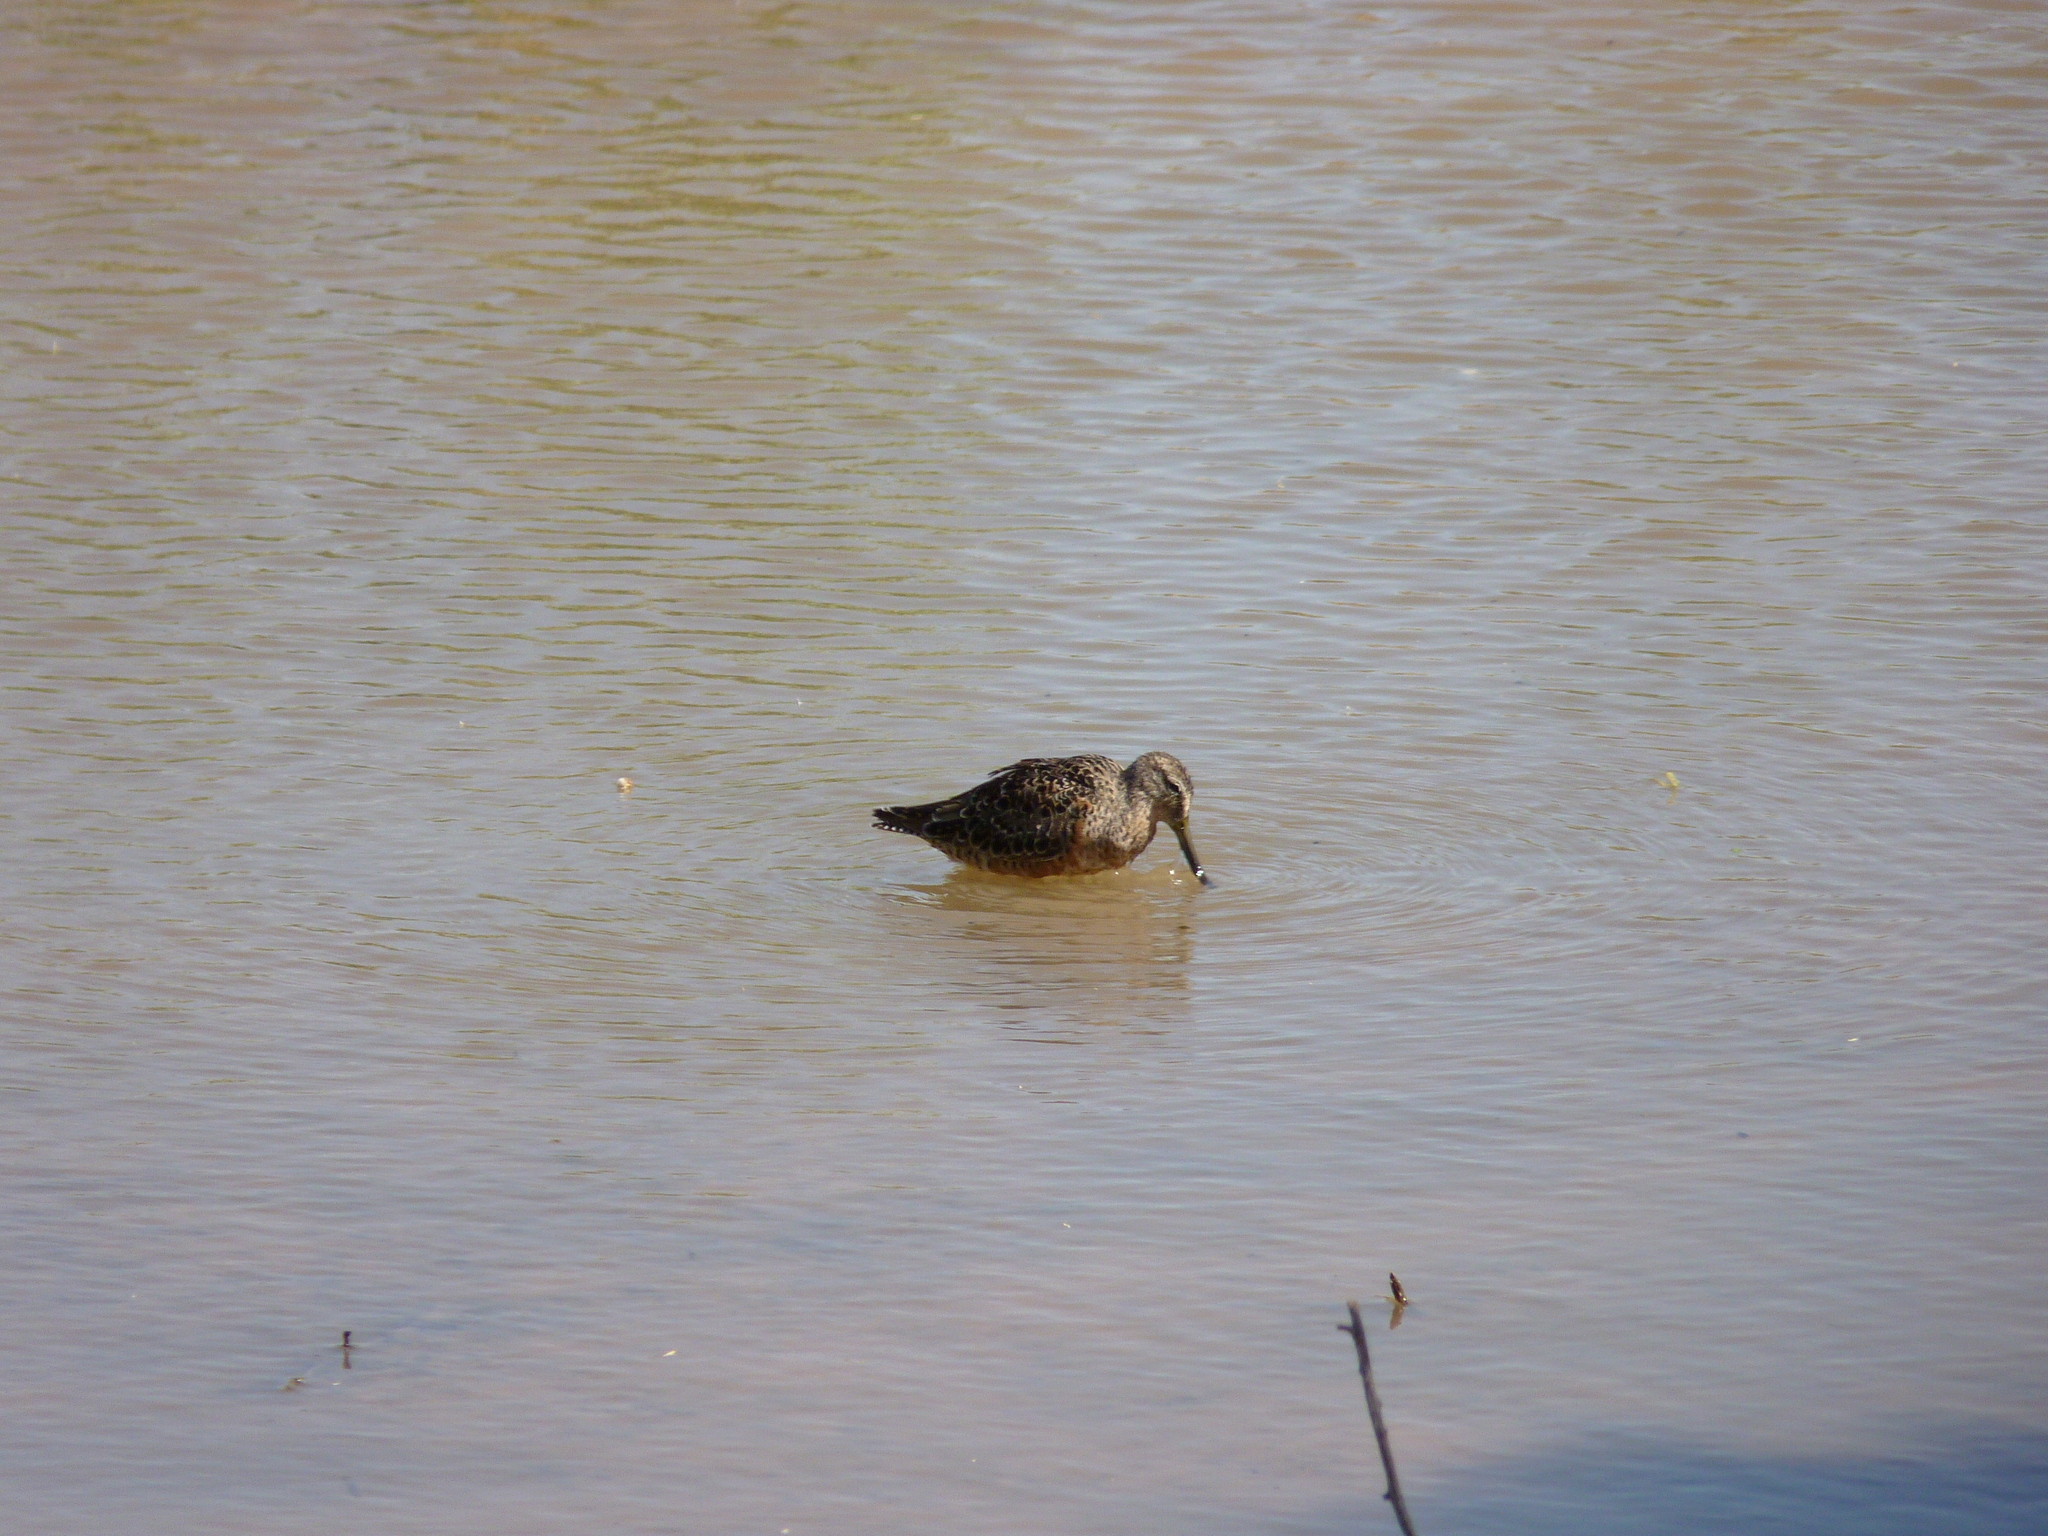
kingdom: Animalia
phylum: Chordata
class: Aves
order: Charadriiformes
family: Scolopacidae
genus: Limnodromus
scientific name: Limnodromus scolopaceus
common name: Long-billed dowitcher
